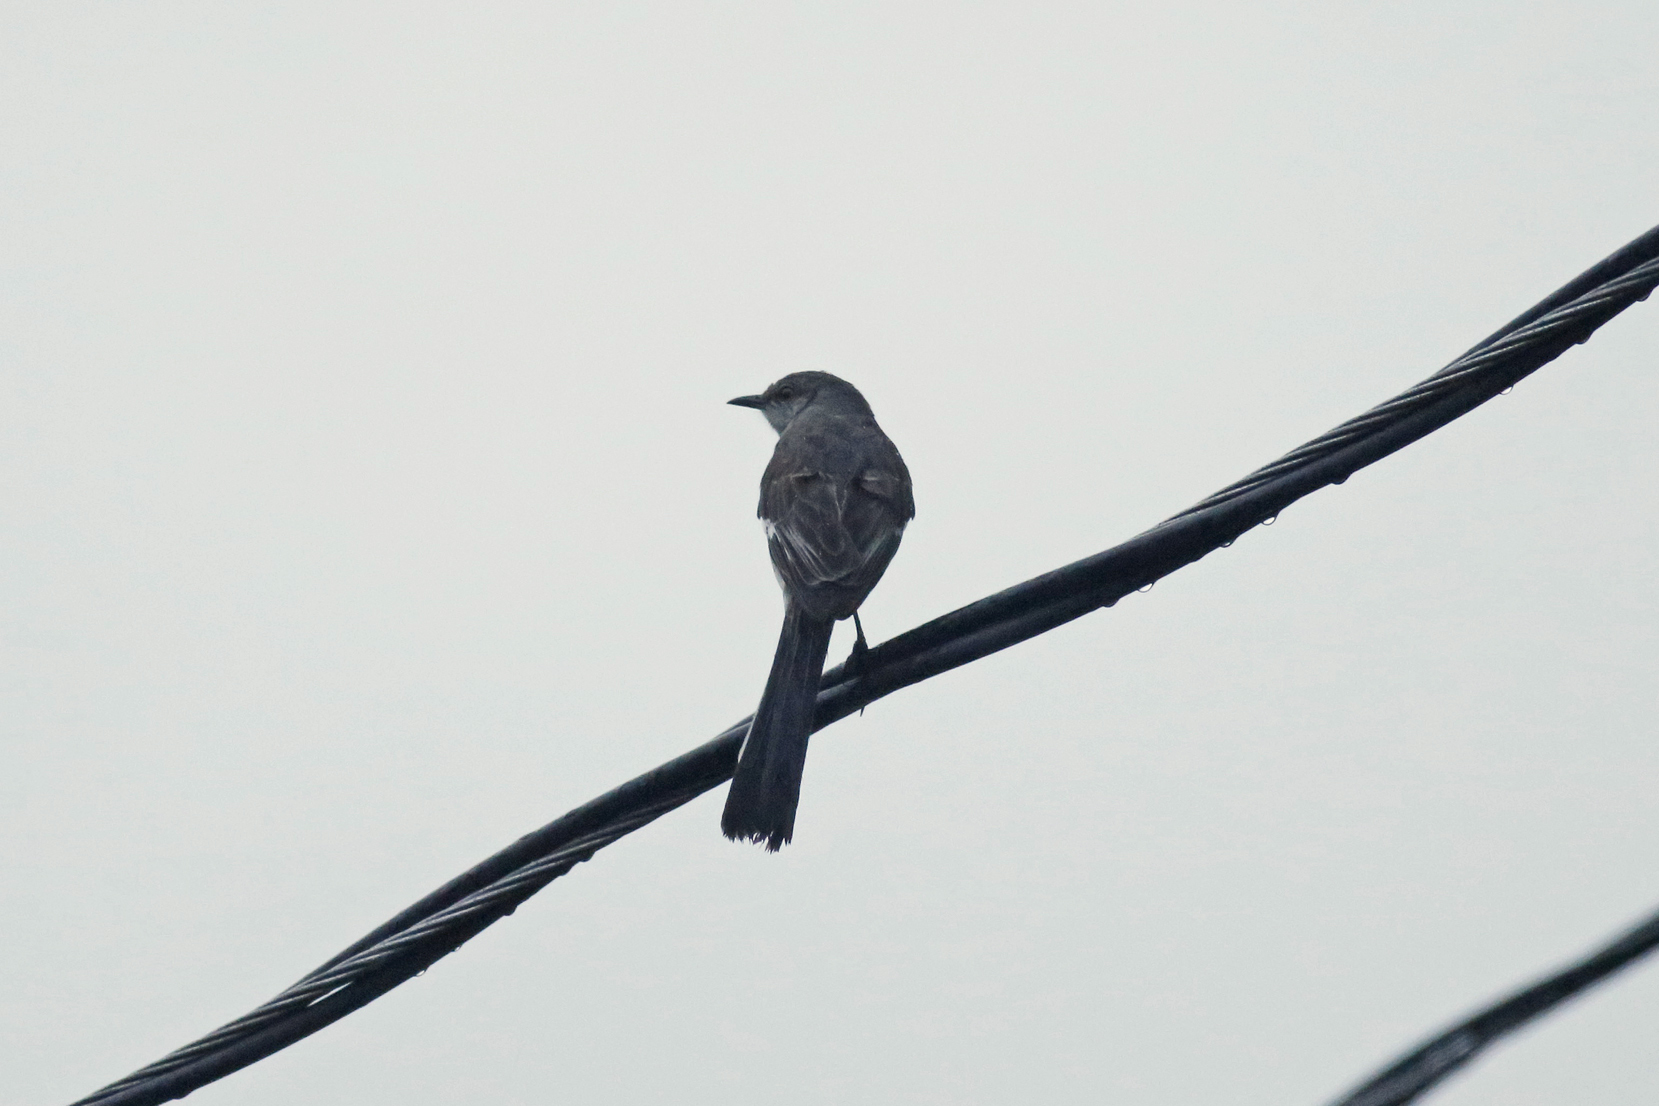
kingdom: Animalia
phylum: Chordata
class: Aves
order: Passeriformes
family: Mimidae
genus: Mimus
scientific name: Mimus polyglottos
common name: Northern mockingbird
